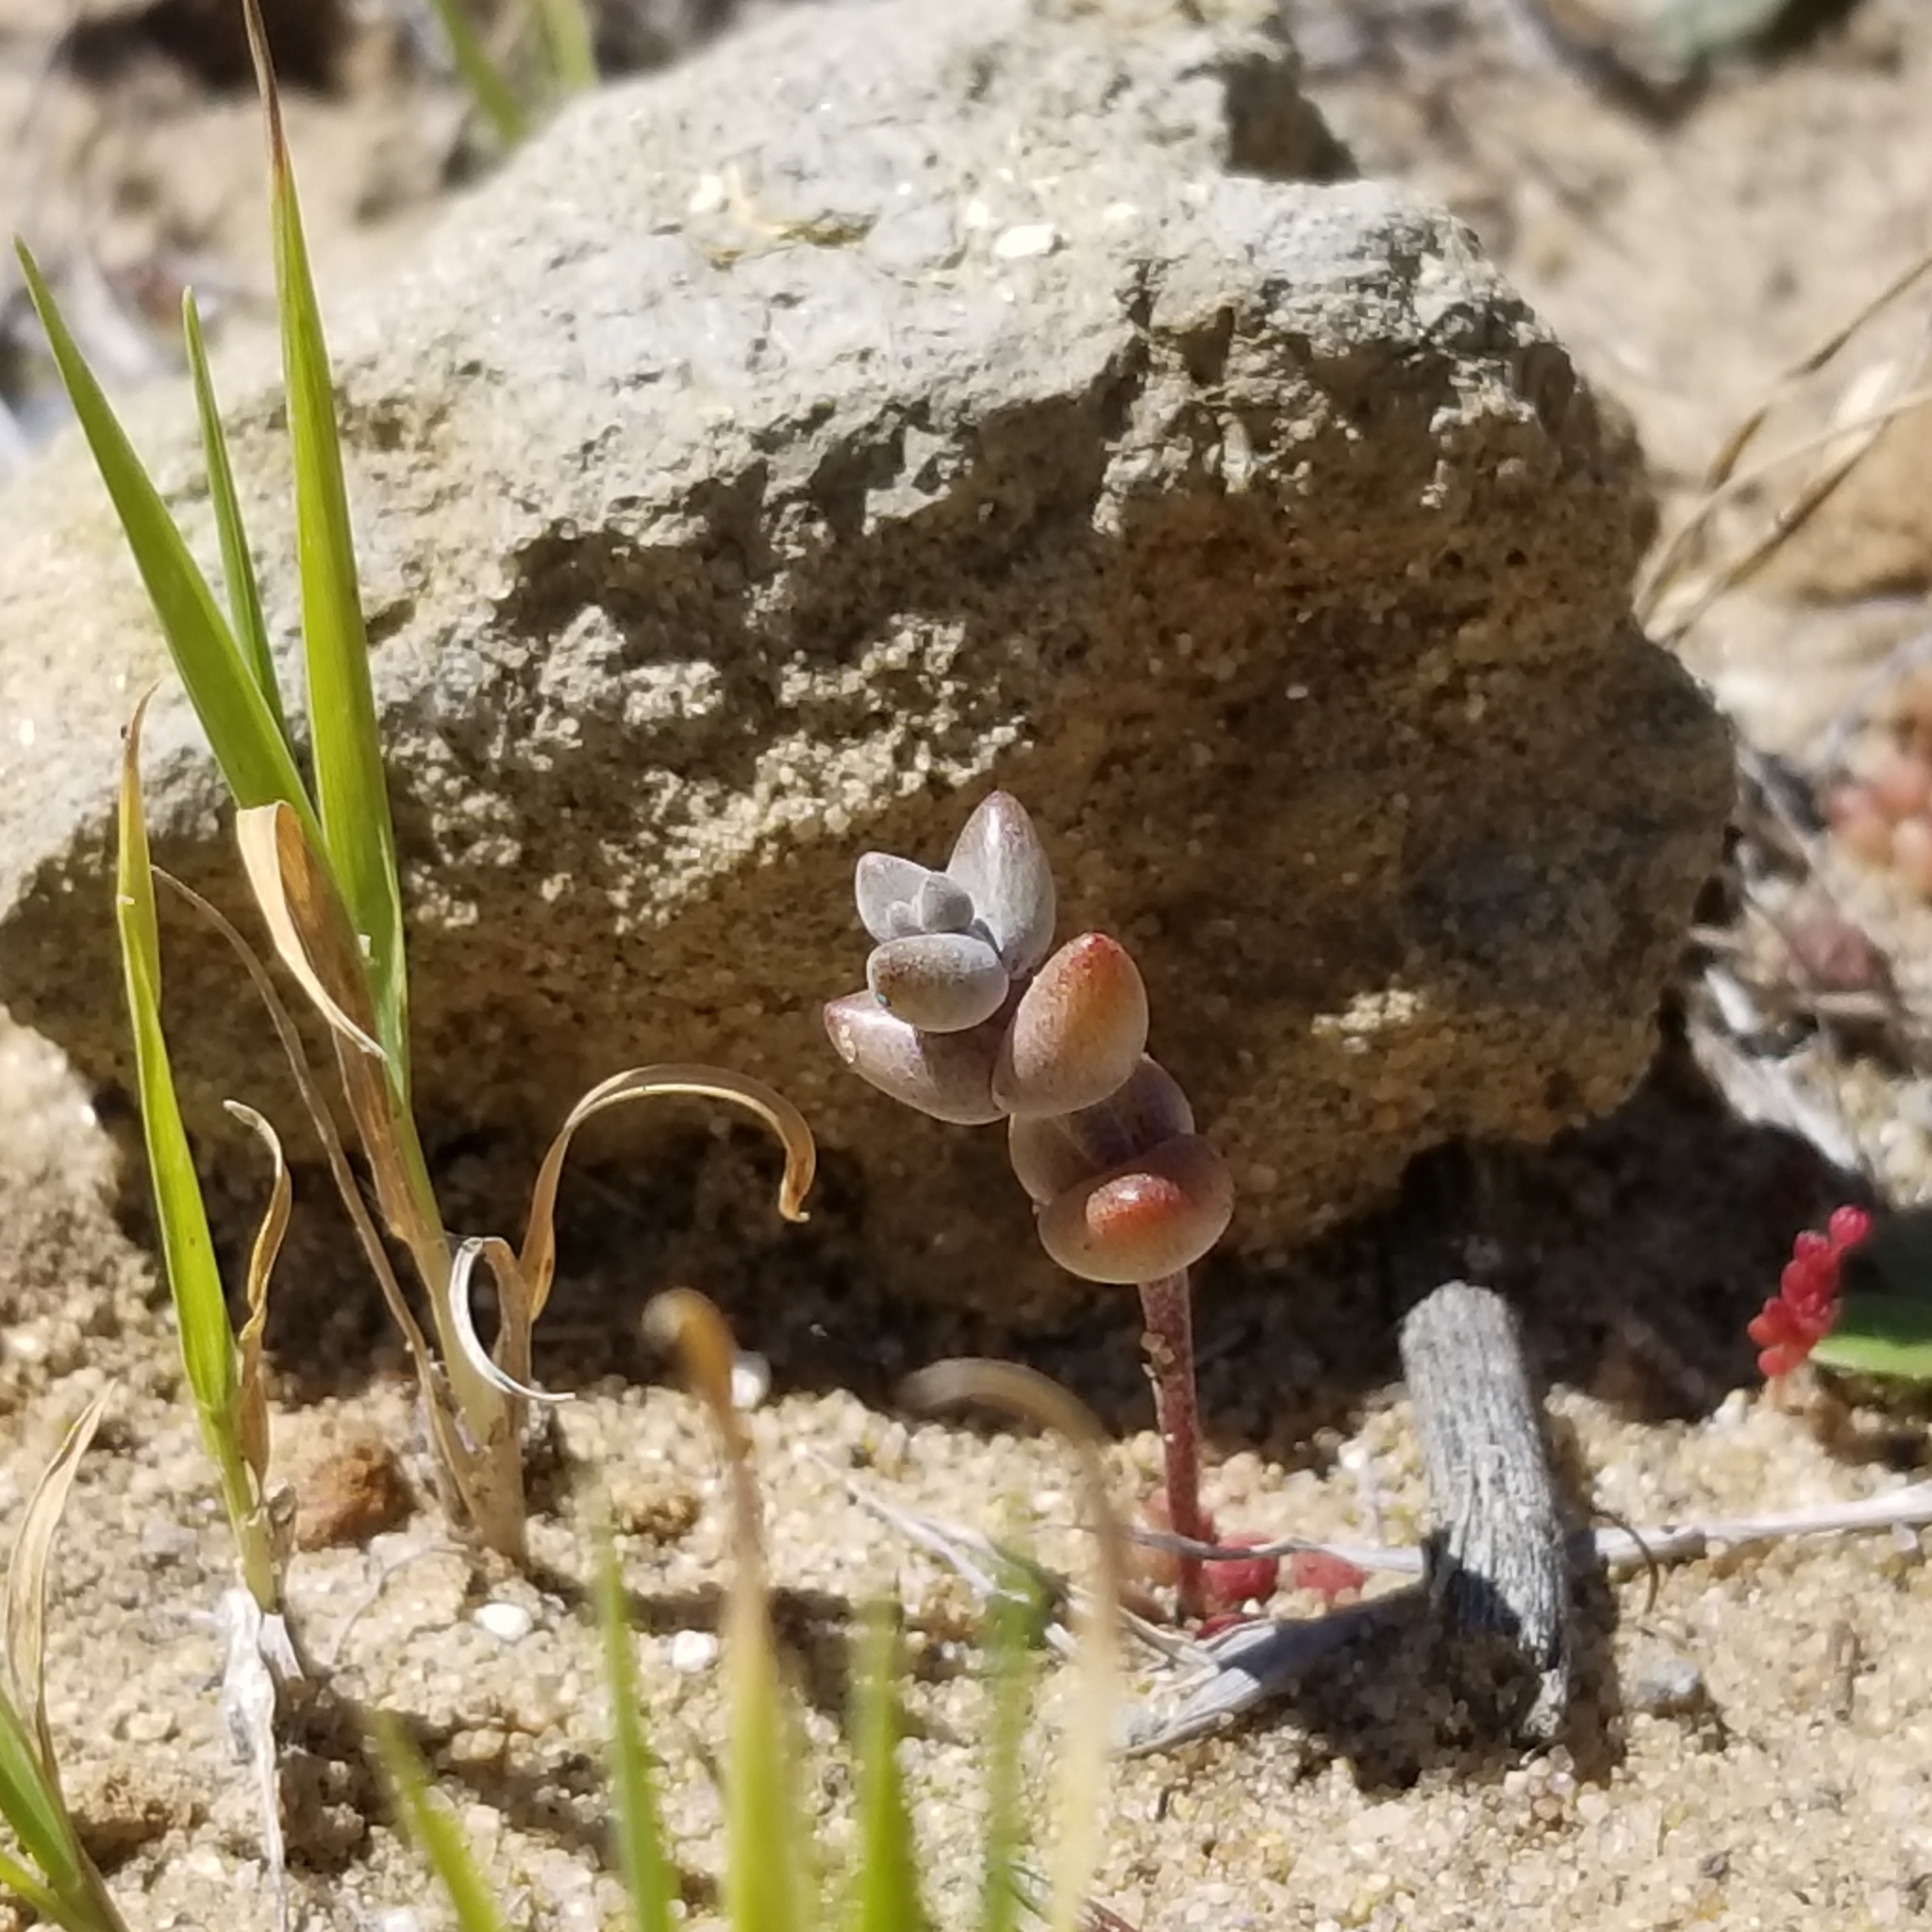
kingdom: Plantae
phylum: Tracheophyta
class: Magnoliopsida
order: Saxifragales
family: Crassulaceae
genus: Dudleya
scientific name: Dudleya blochmaniae
